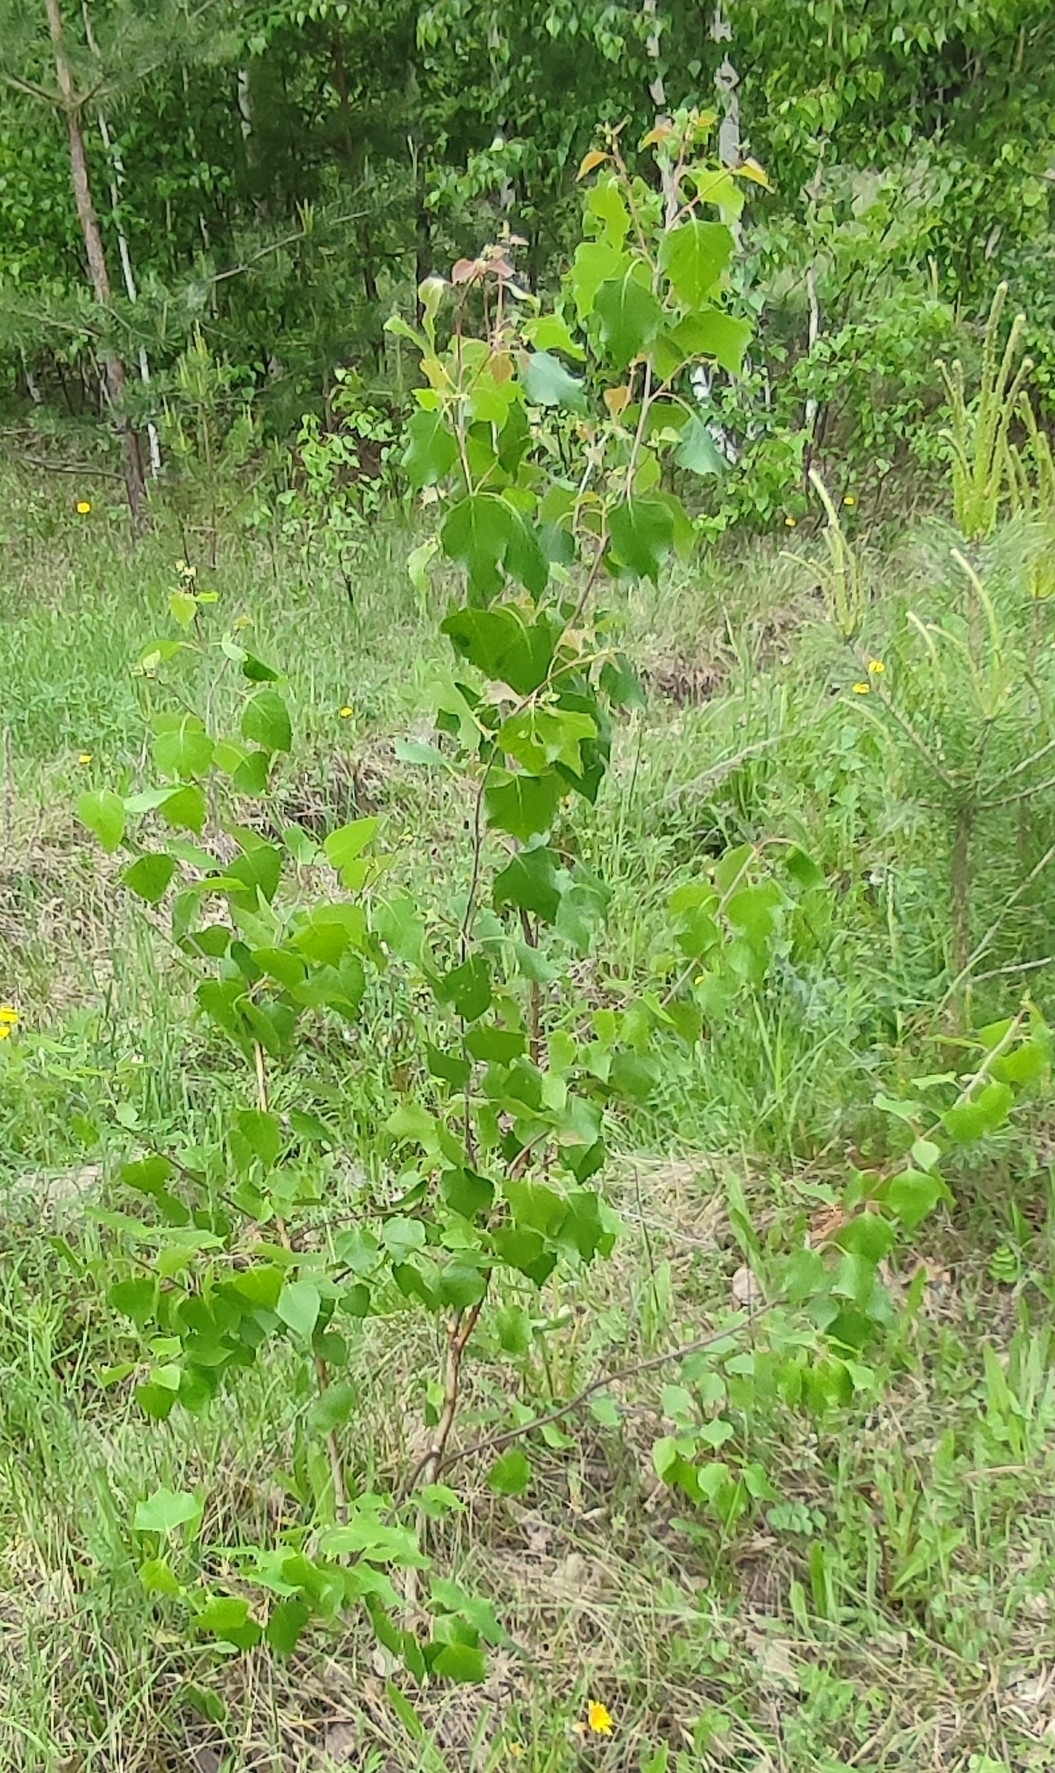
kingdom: Plantae
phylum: Tracheophyta
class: Magnoliopsida
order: Fagales
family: Betulaceae
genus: Betula
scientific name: Betula pendula
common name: Silver birch
